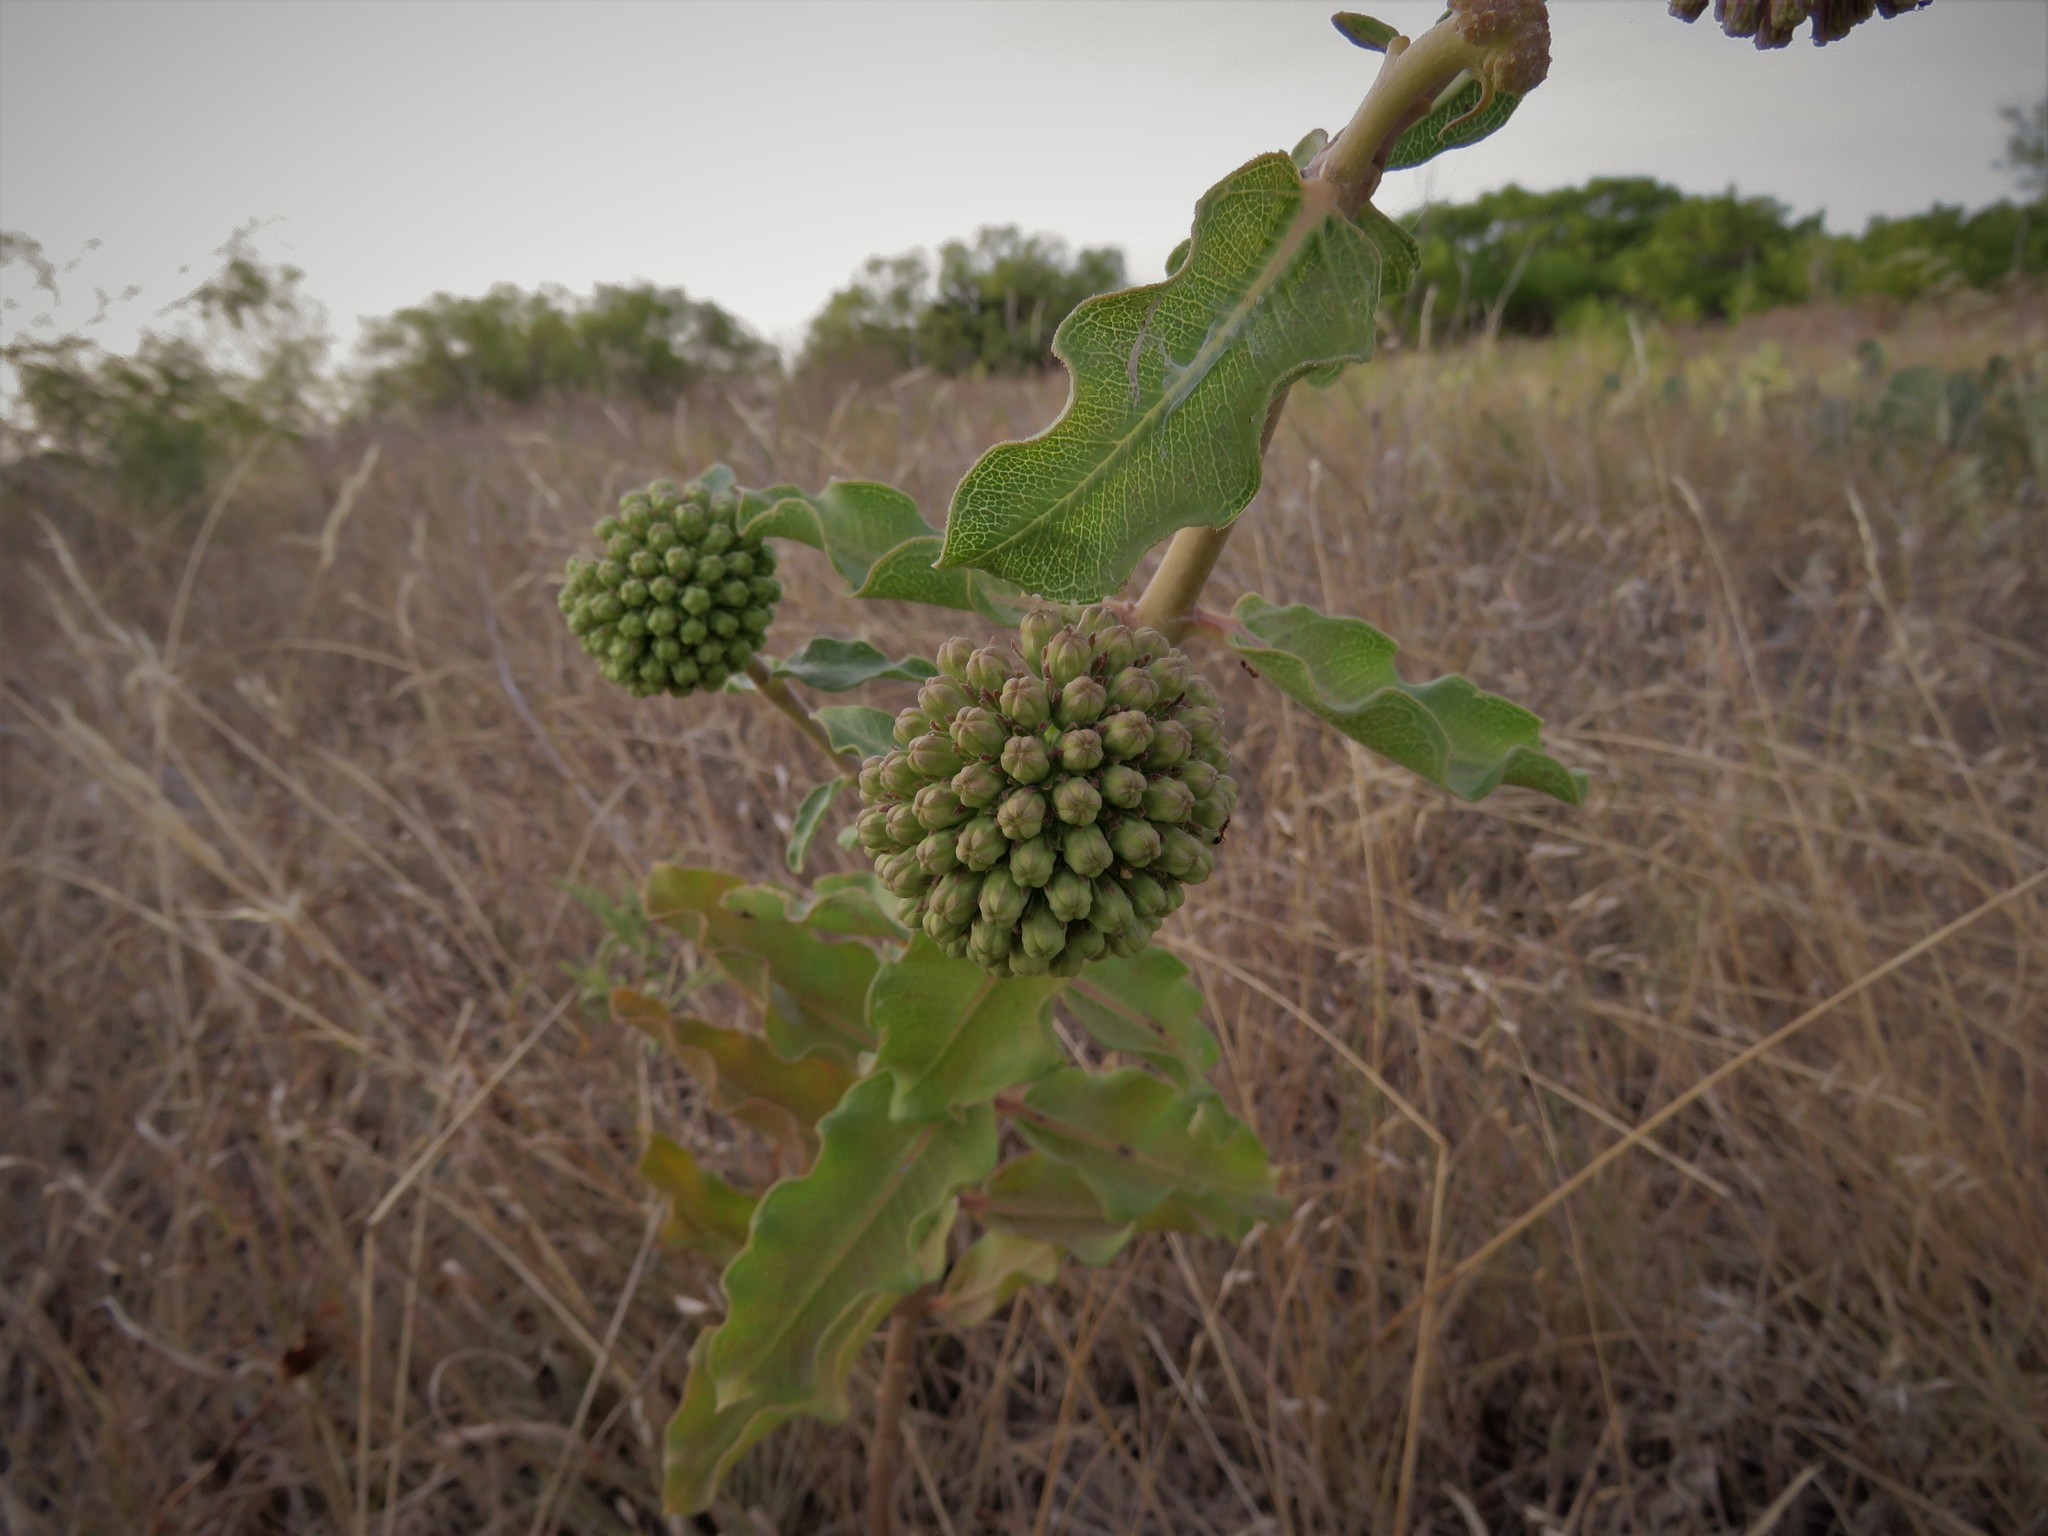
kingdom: Plantae
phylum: Tracheophyta
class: Magnoliopsida
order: Gentianales
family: Apocynaceae
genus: Asclepias
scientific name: Asclepias viridiflora
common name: Green comet milkweed
